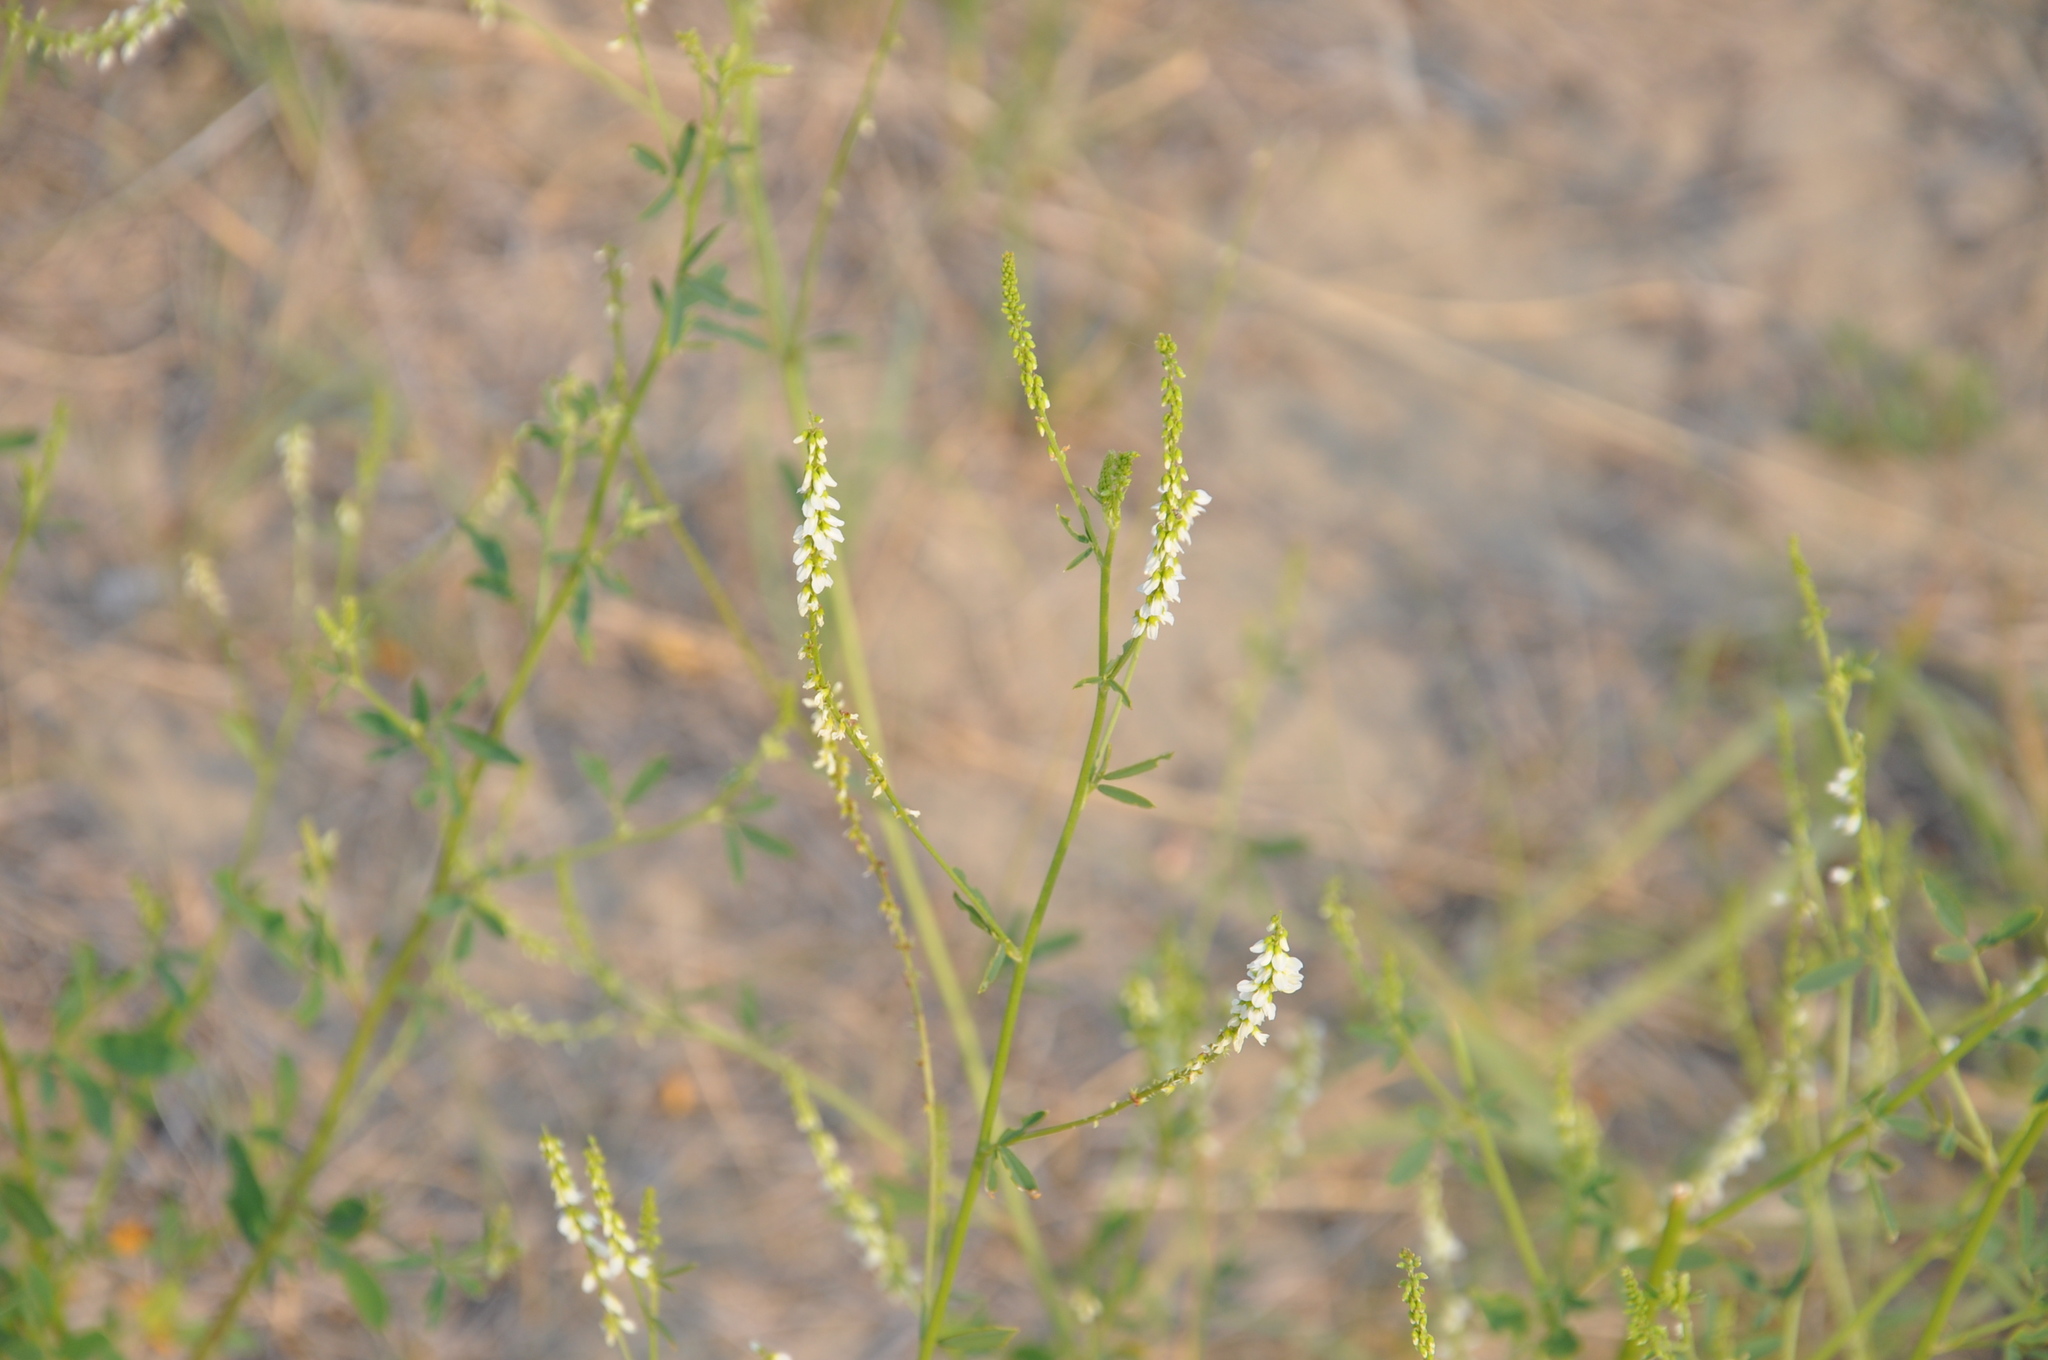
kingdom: Plantae
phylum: Tracheophyta
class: Magnoliopsida
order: Fabales
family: Fabaceae
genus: Melilotus
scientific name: Melilotus albus
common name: White melilot
